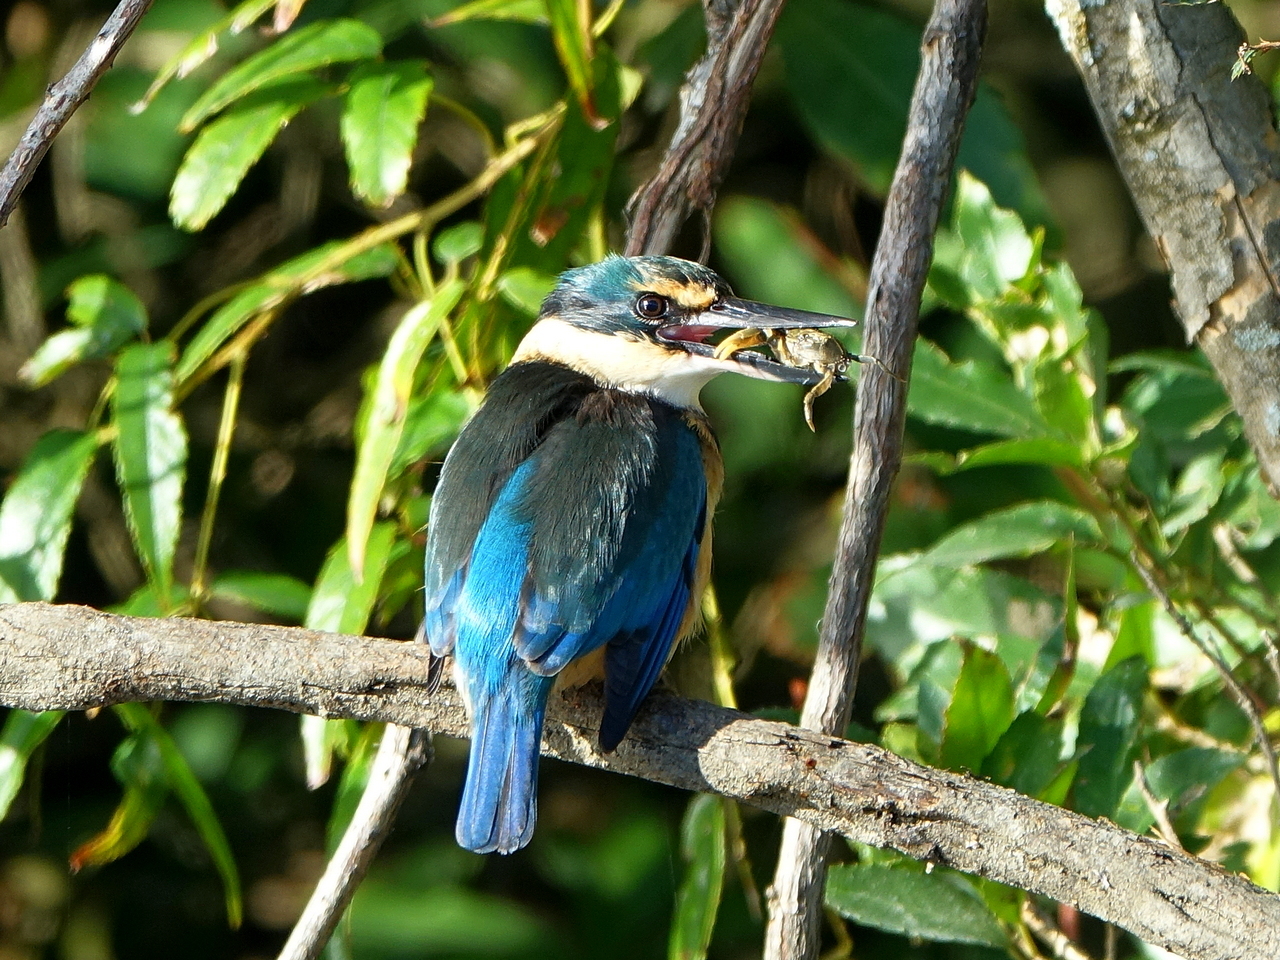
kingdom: Animalia
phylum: Chordata
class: Aves
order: Coraciiformes
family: Alcedinidae
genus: Todiramphus
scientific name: Todiramphus sanctus
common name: Sacred kingfisher
